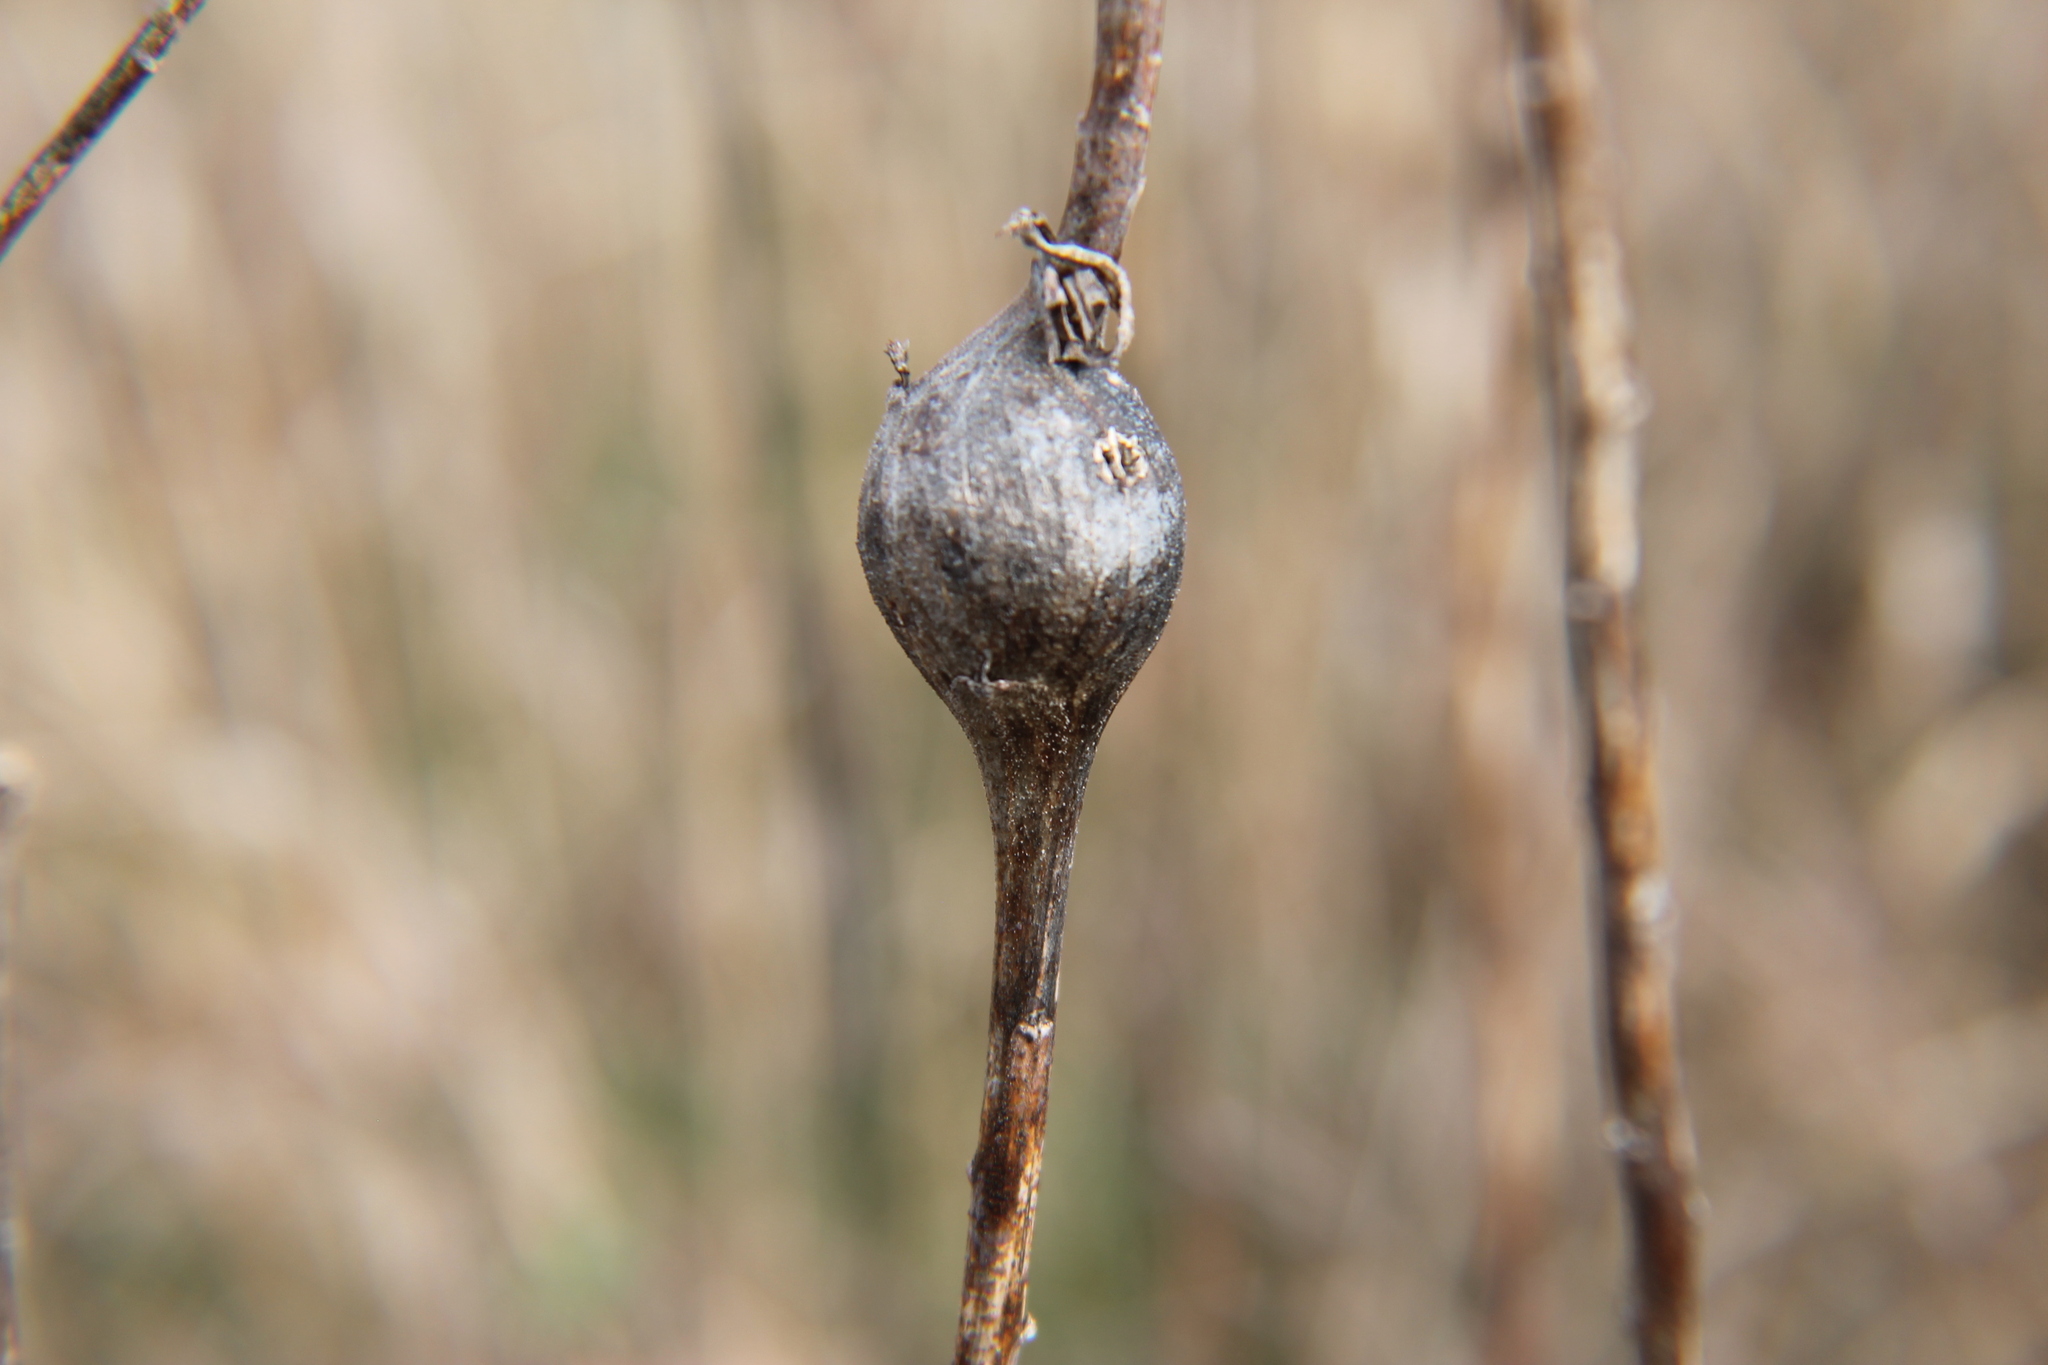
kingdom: Animalia
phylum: Arthropoda
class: Insecta
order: Diptera
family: Tephritidae
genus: Eurosta
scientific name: Eurosta solidaginis
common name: Goldenrod gall fly
